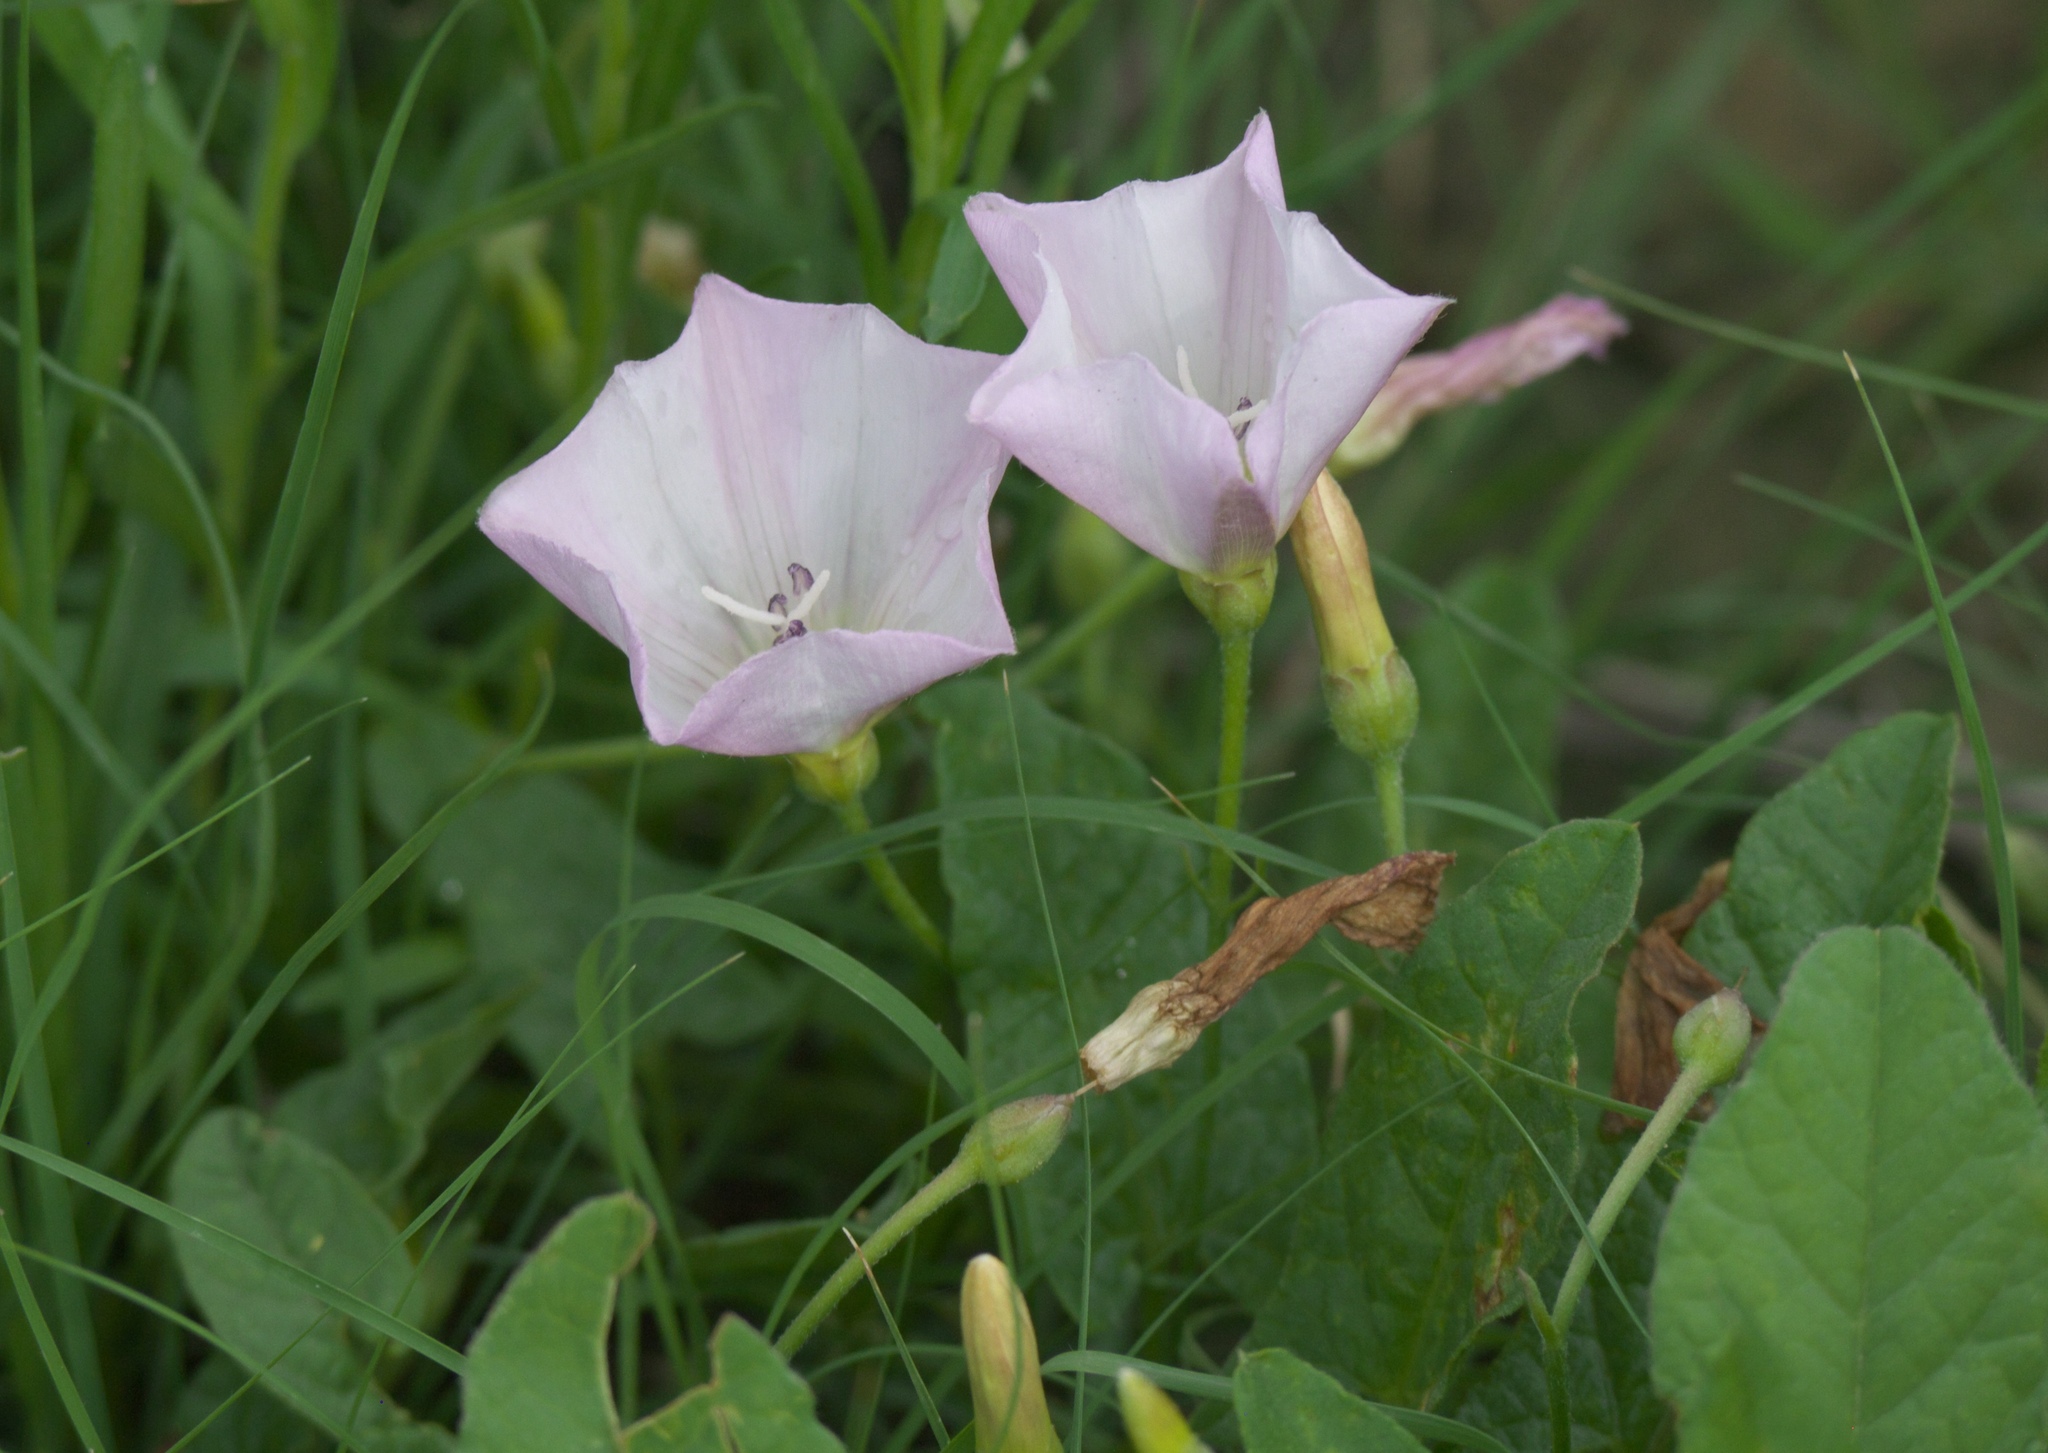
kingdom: Plantae
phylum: Tracheophyta
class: Magnoliopsida
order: Solanales
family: Convolvulaceae
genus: Convolvulus
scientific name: Convolvulus arvensis
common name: Field bindweed
